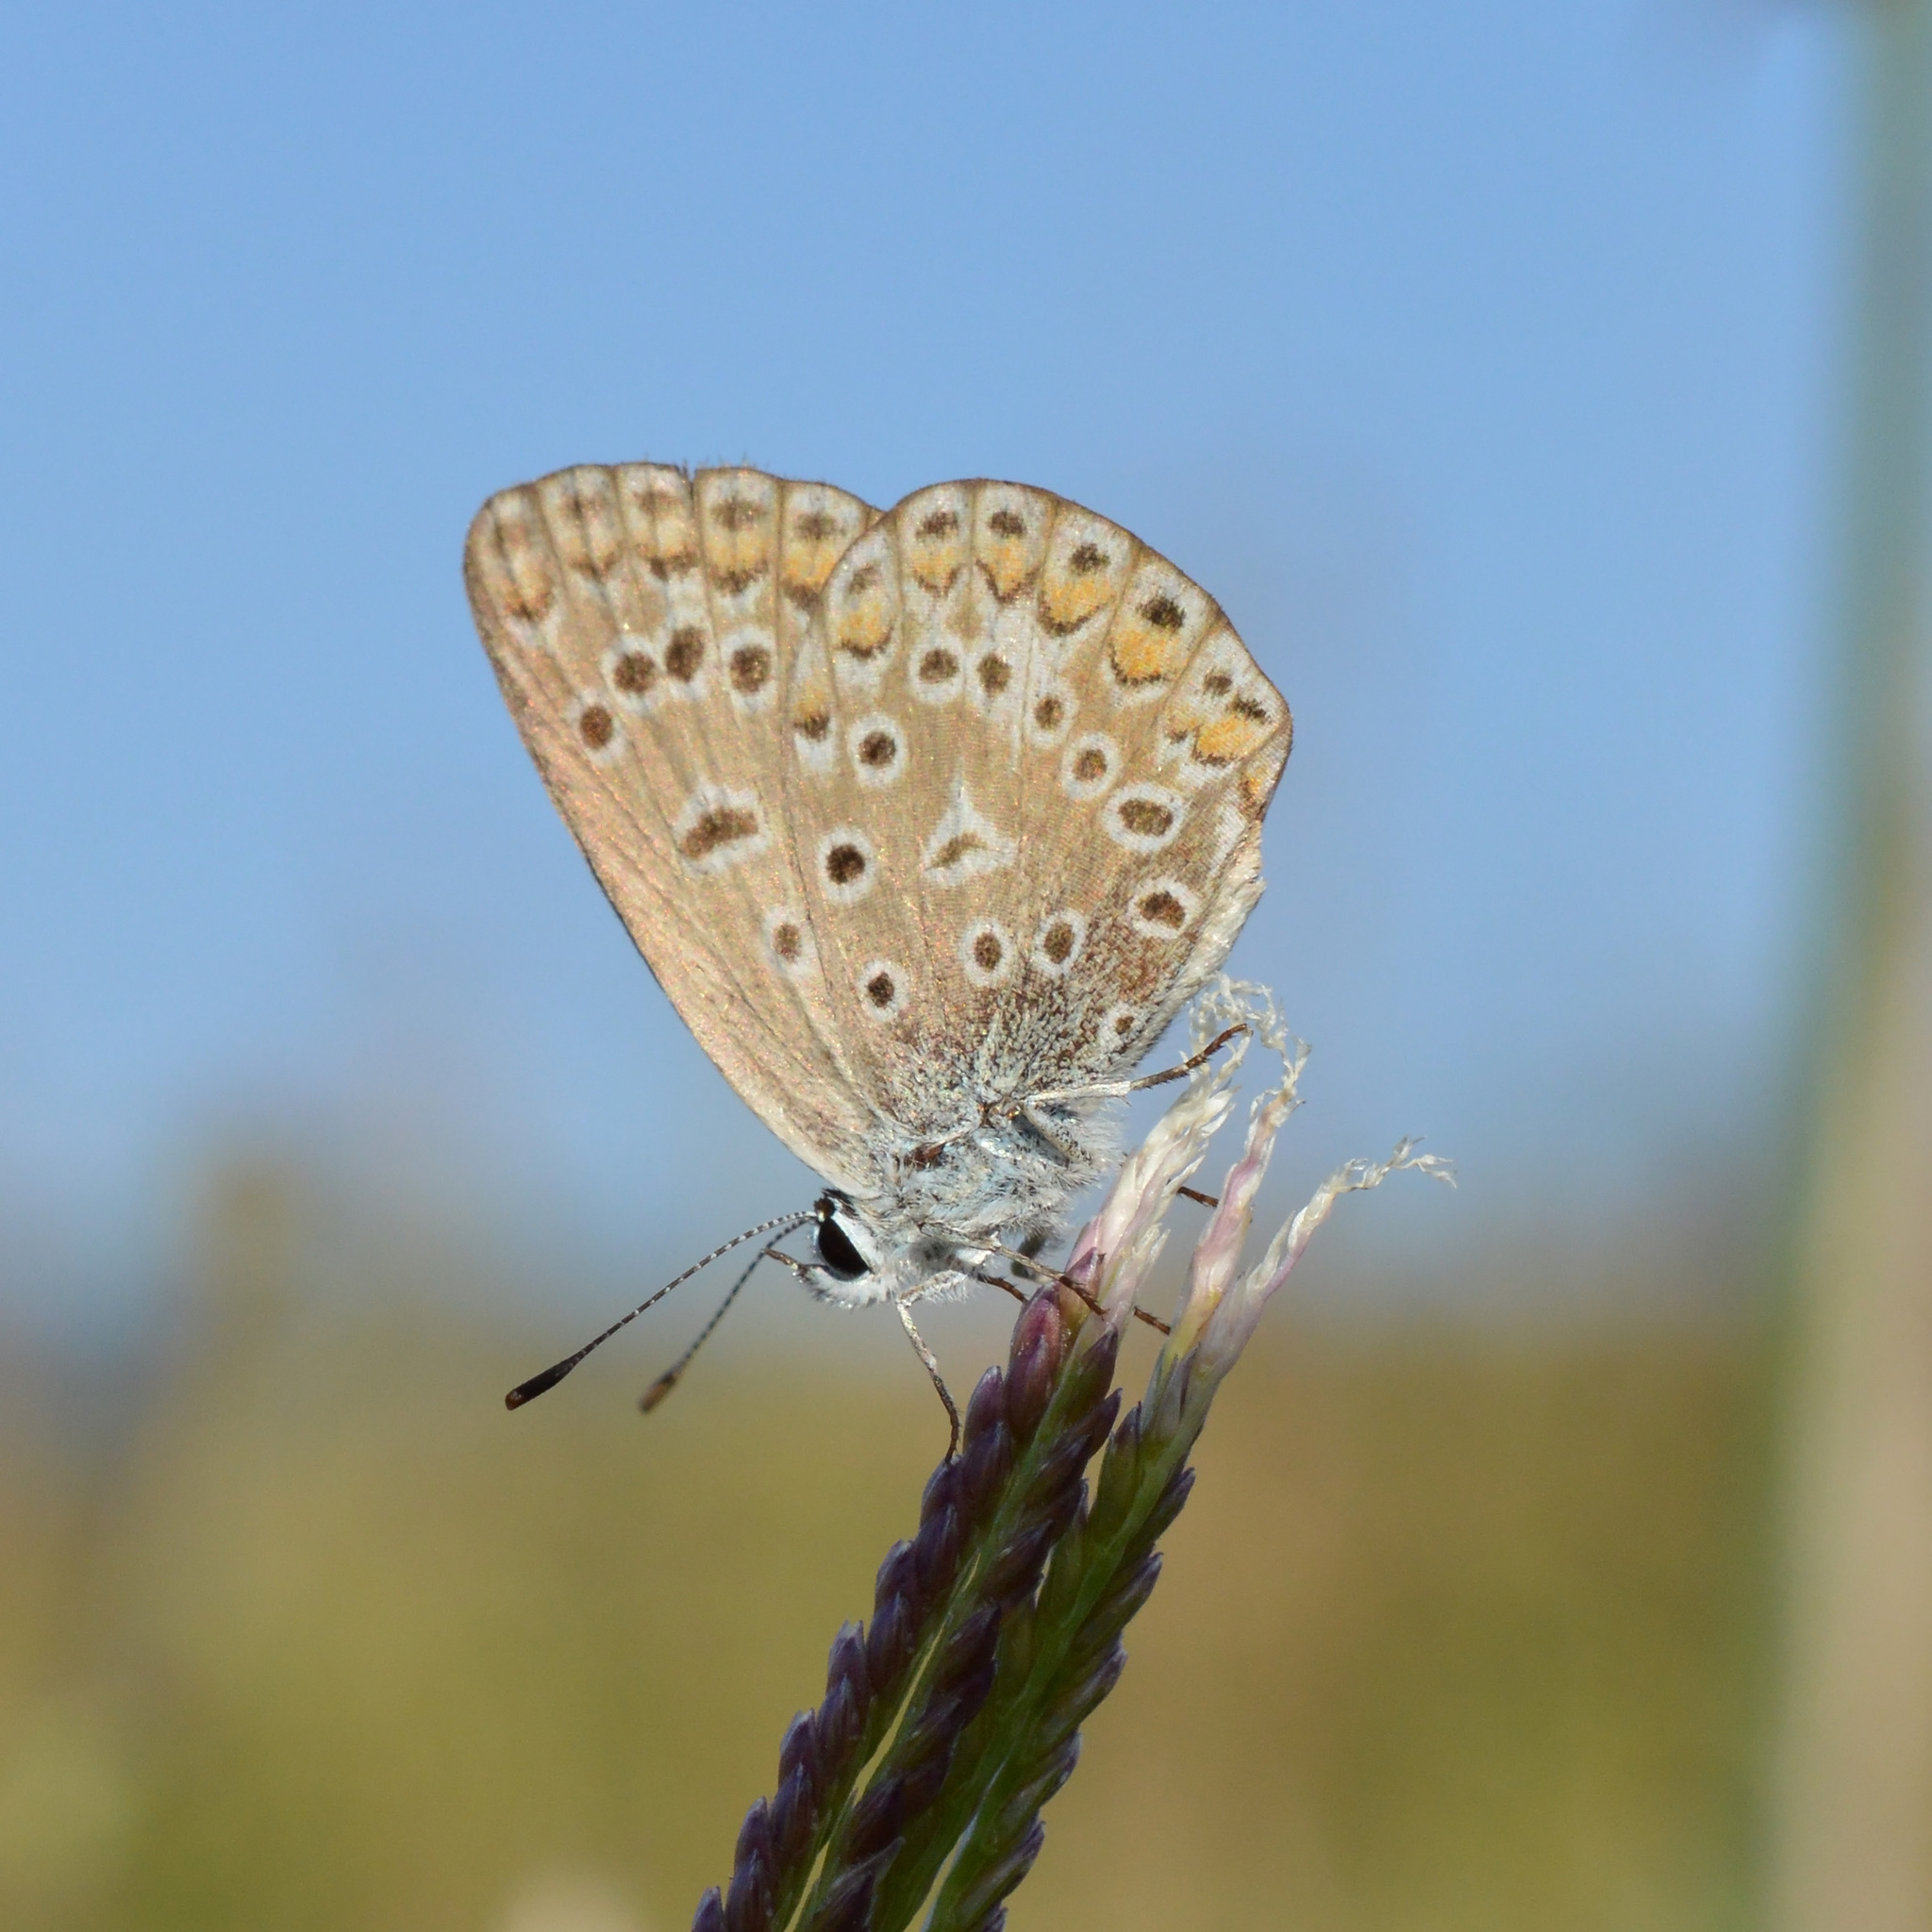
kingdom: Animalia
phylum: Arthropoda
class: Insecta
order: Lepidoptera
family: Lycaenidae
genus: Polyommatus
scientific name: Polyommatus icarus
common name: Common blue
